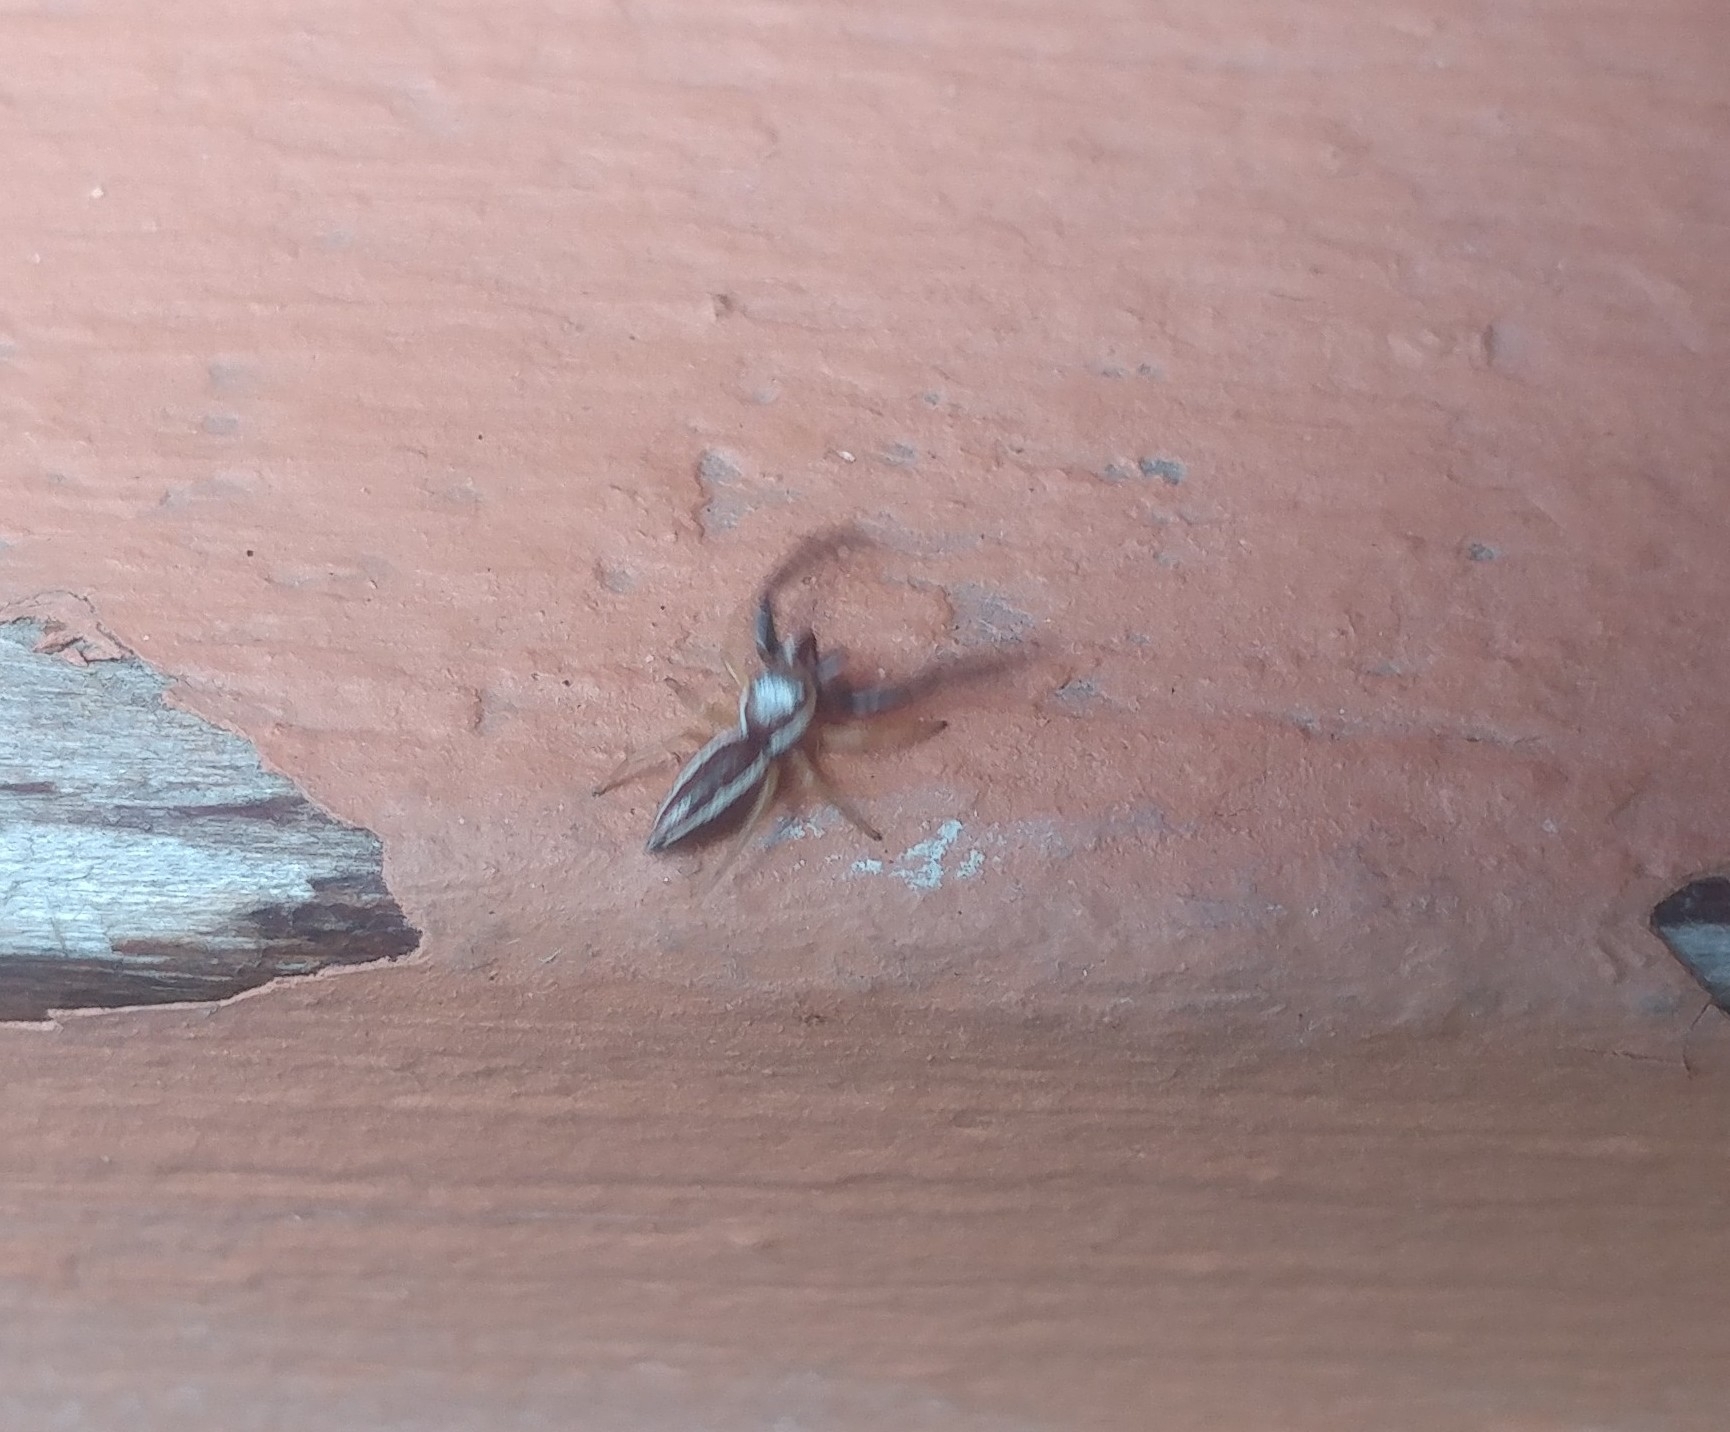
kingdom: Animalia
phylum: Arthropoda
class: Arachnida
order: Araneae
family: Salticidae
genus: Hentzia
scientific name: Hentzia palmarum
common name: Common hentz jumping spider
